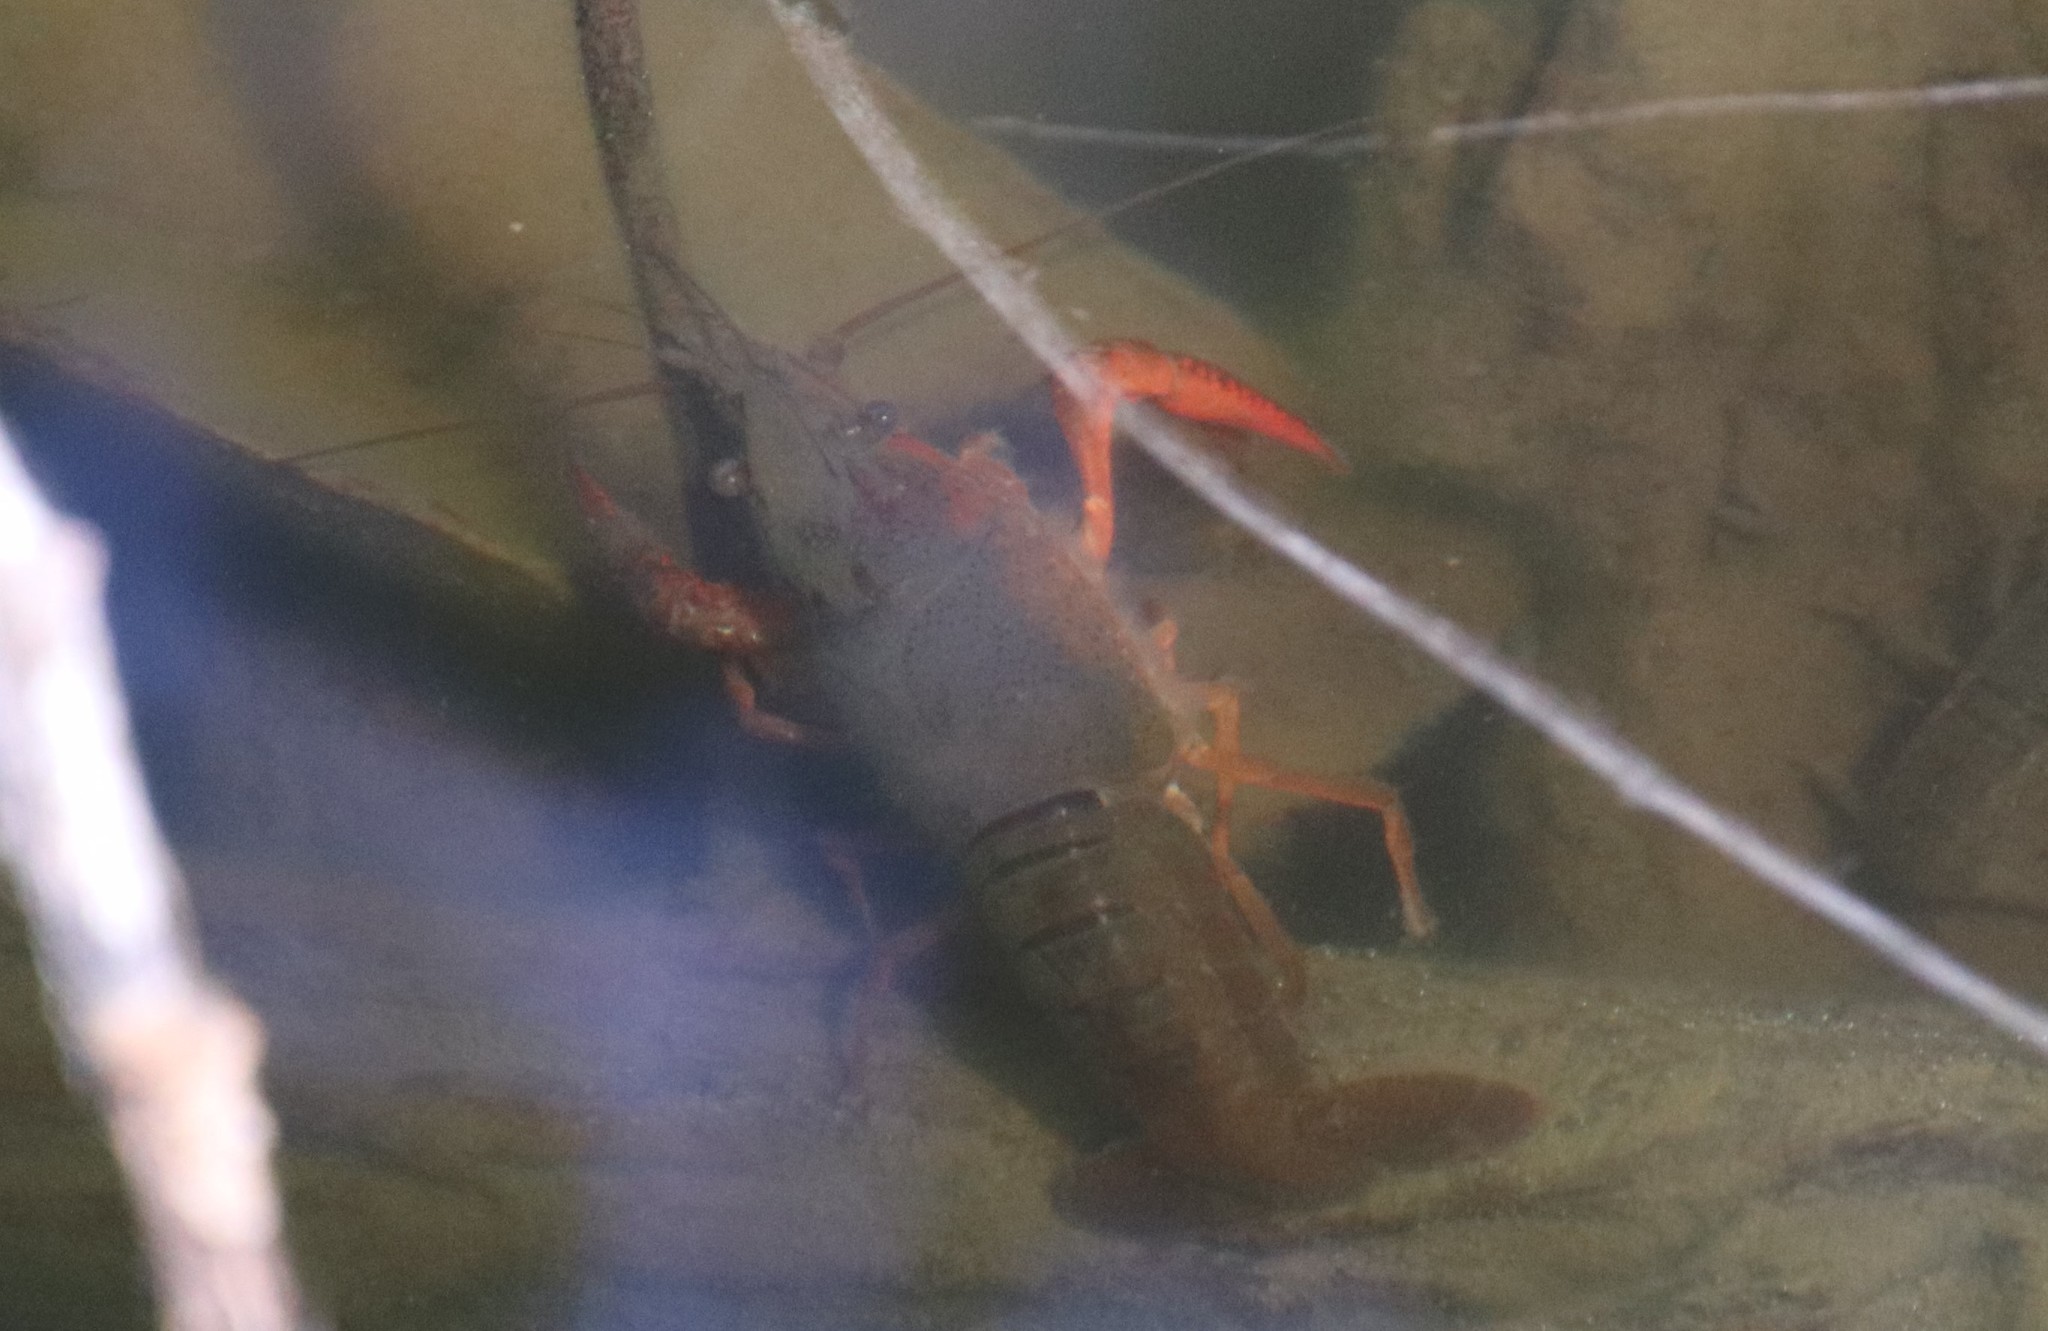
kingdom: Animalia
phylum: Arthropoda
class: Malacostraca
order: Decapoda
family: Cambaridae
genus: Procambarus
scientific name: Procambarus clarkii
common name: Red swamp crayfish
